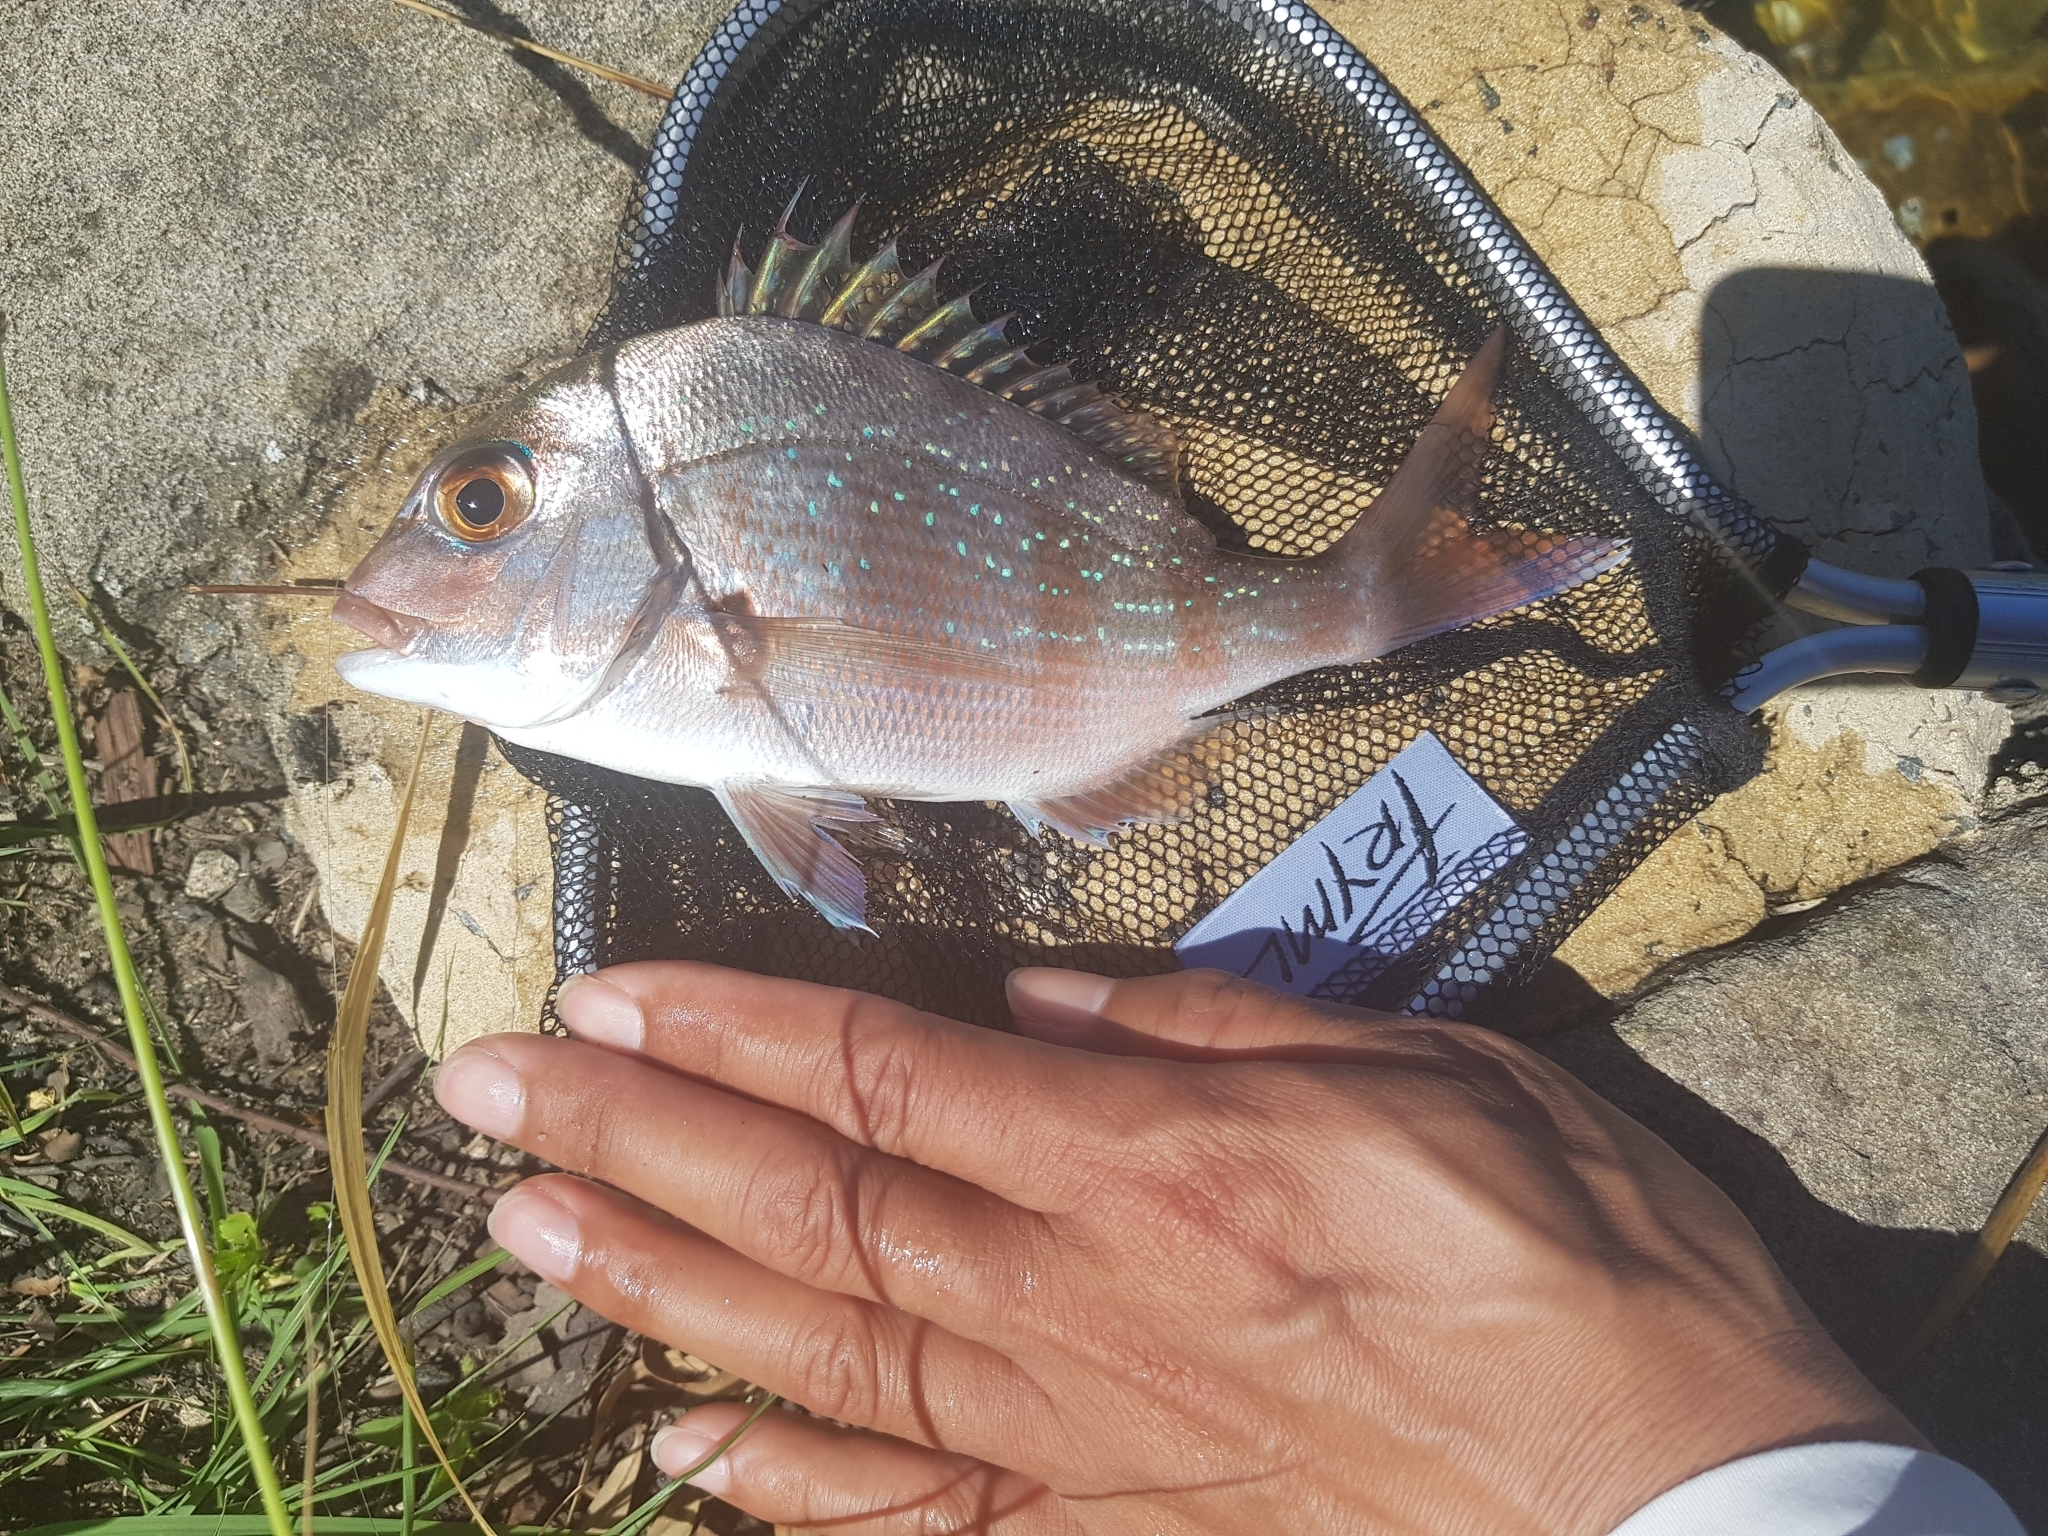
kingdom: Animalia
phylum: Chordata
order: Perciformes
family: Sparidae
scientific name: Sparidae
